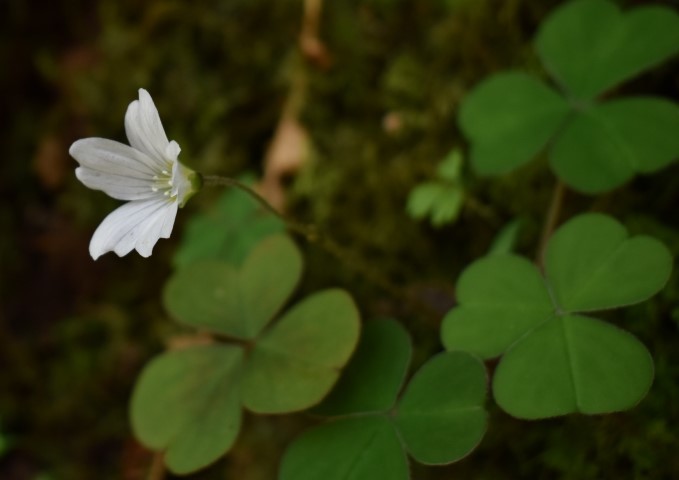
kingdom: Plantae
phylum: Tracheophyta
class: Magnoliopsida
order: Oxalidales
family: Oxalidaceae
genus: Oxalis
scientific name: Oxalis oregana
